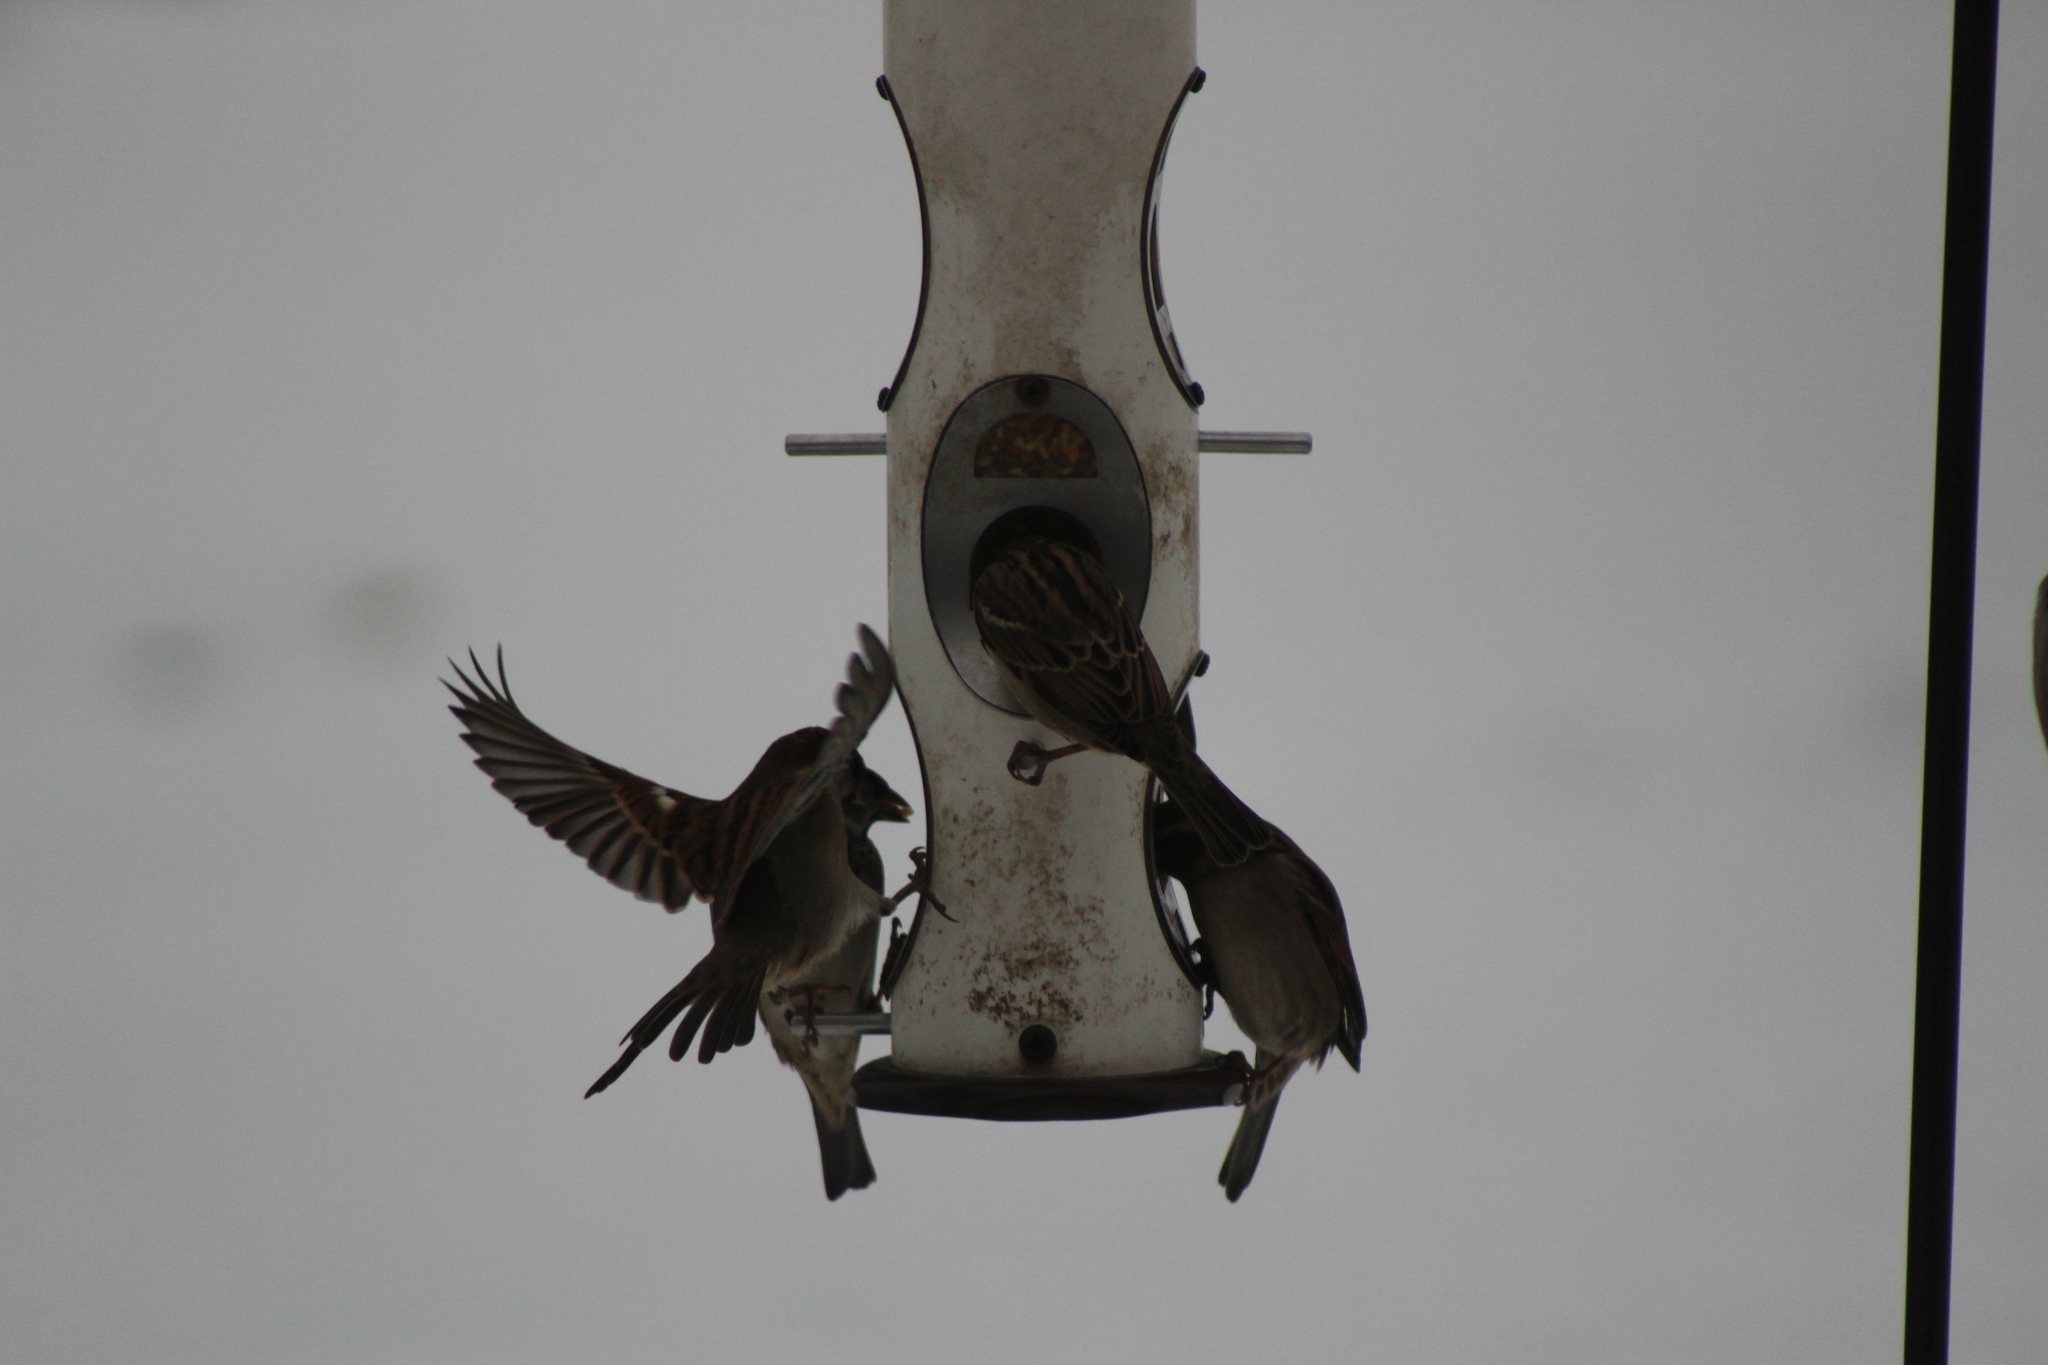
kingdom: Animalia
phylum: Chordata
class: Aves
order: Passeriformes
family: Passeridae
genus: Passer
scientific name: Passer domesticus
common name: House sparrow
